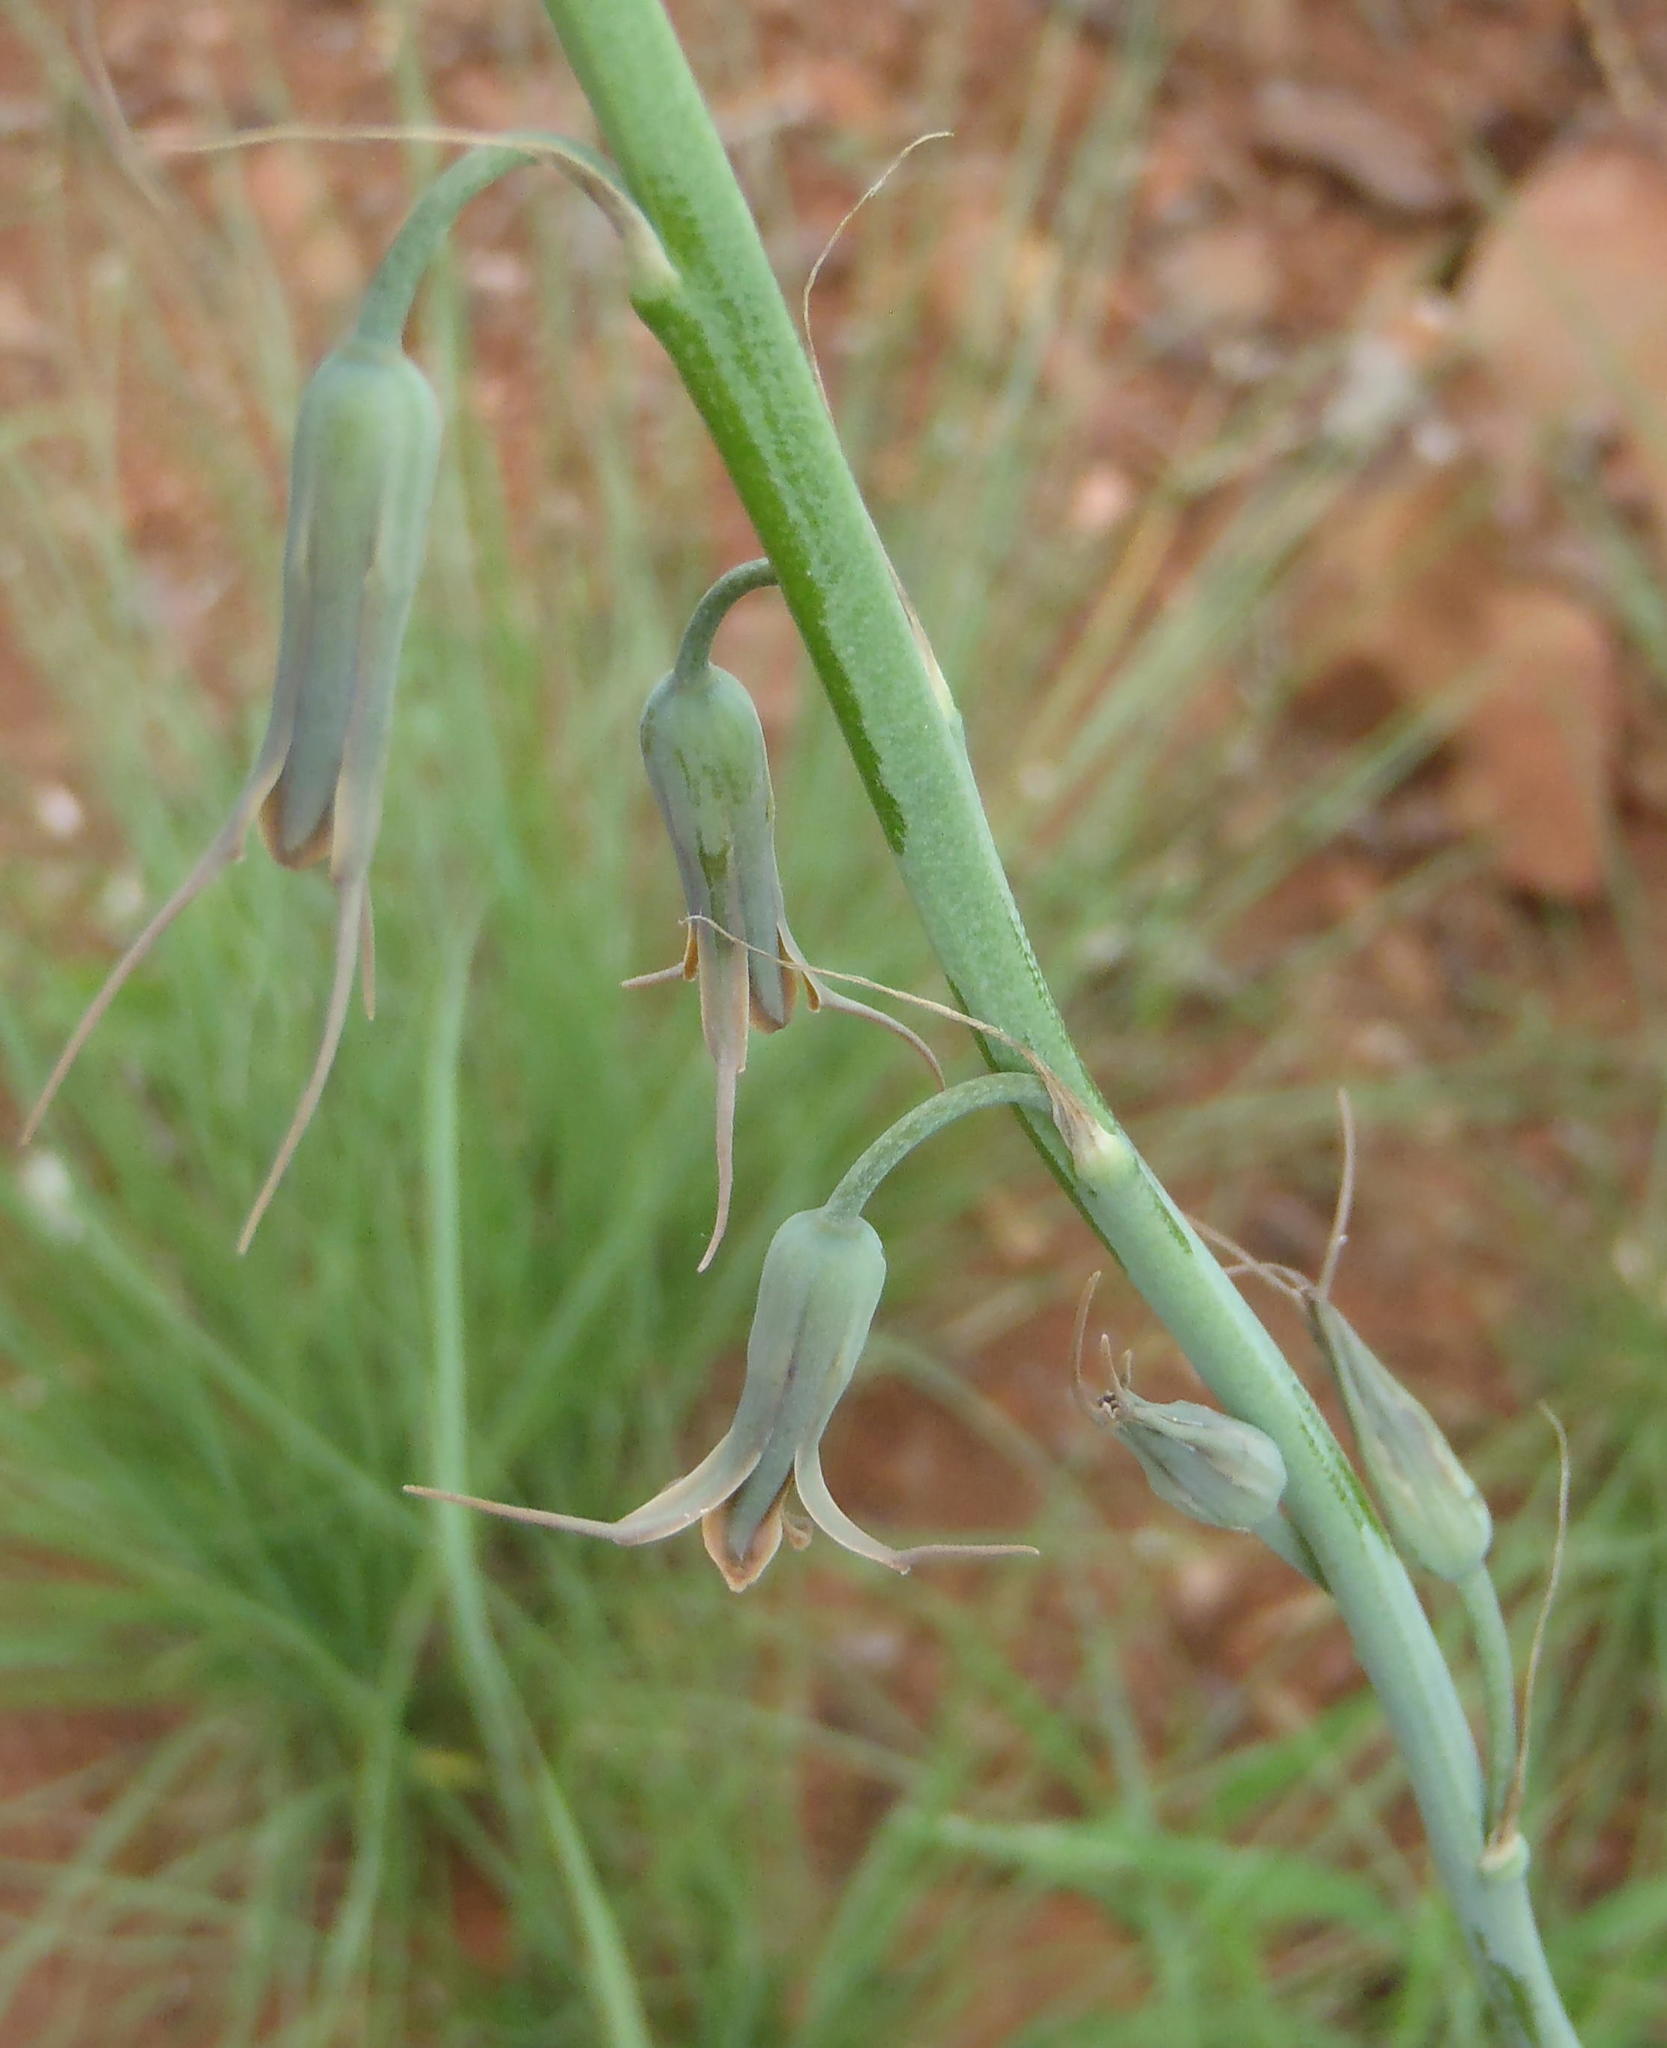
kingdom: Plantae
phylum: Tracheophyta
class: Liliopsida
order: Asparagales
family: Asparagaceae
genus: Dipcadi
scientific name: Dipcadi viride
